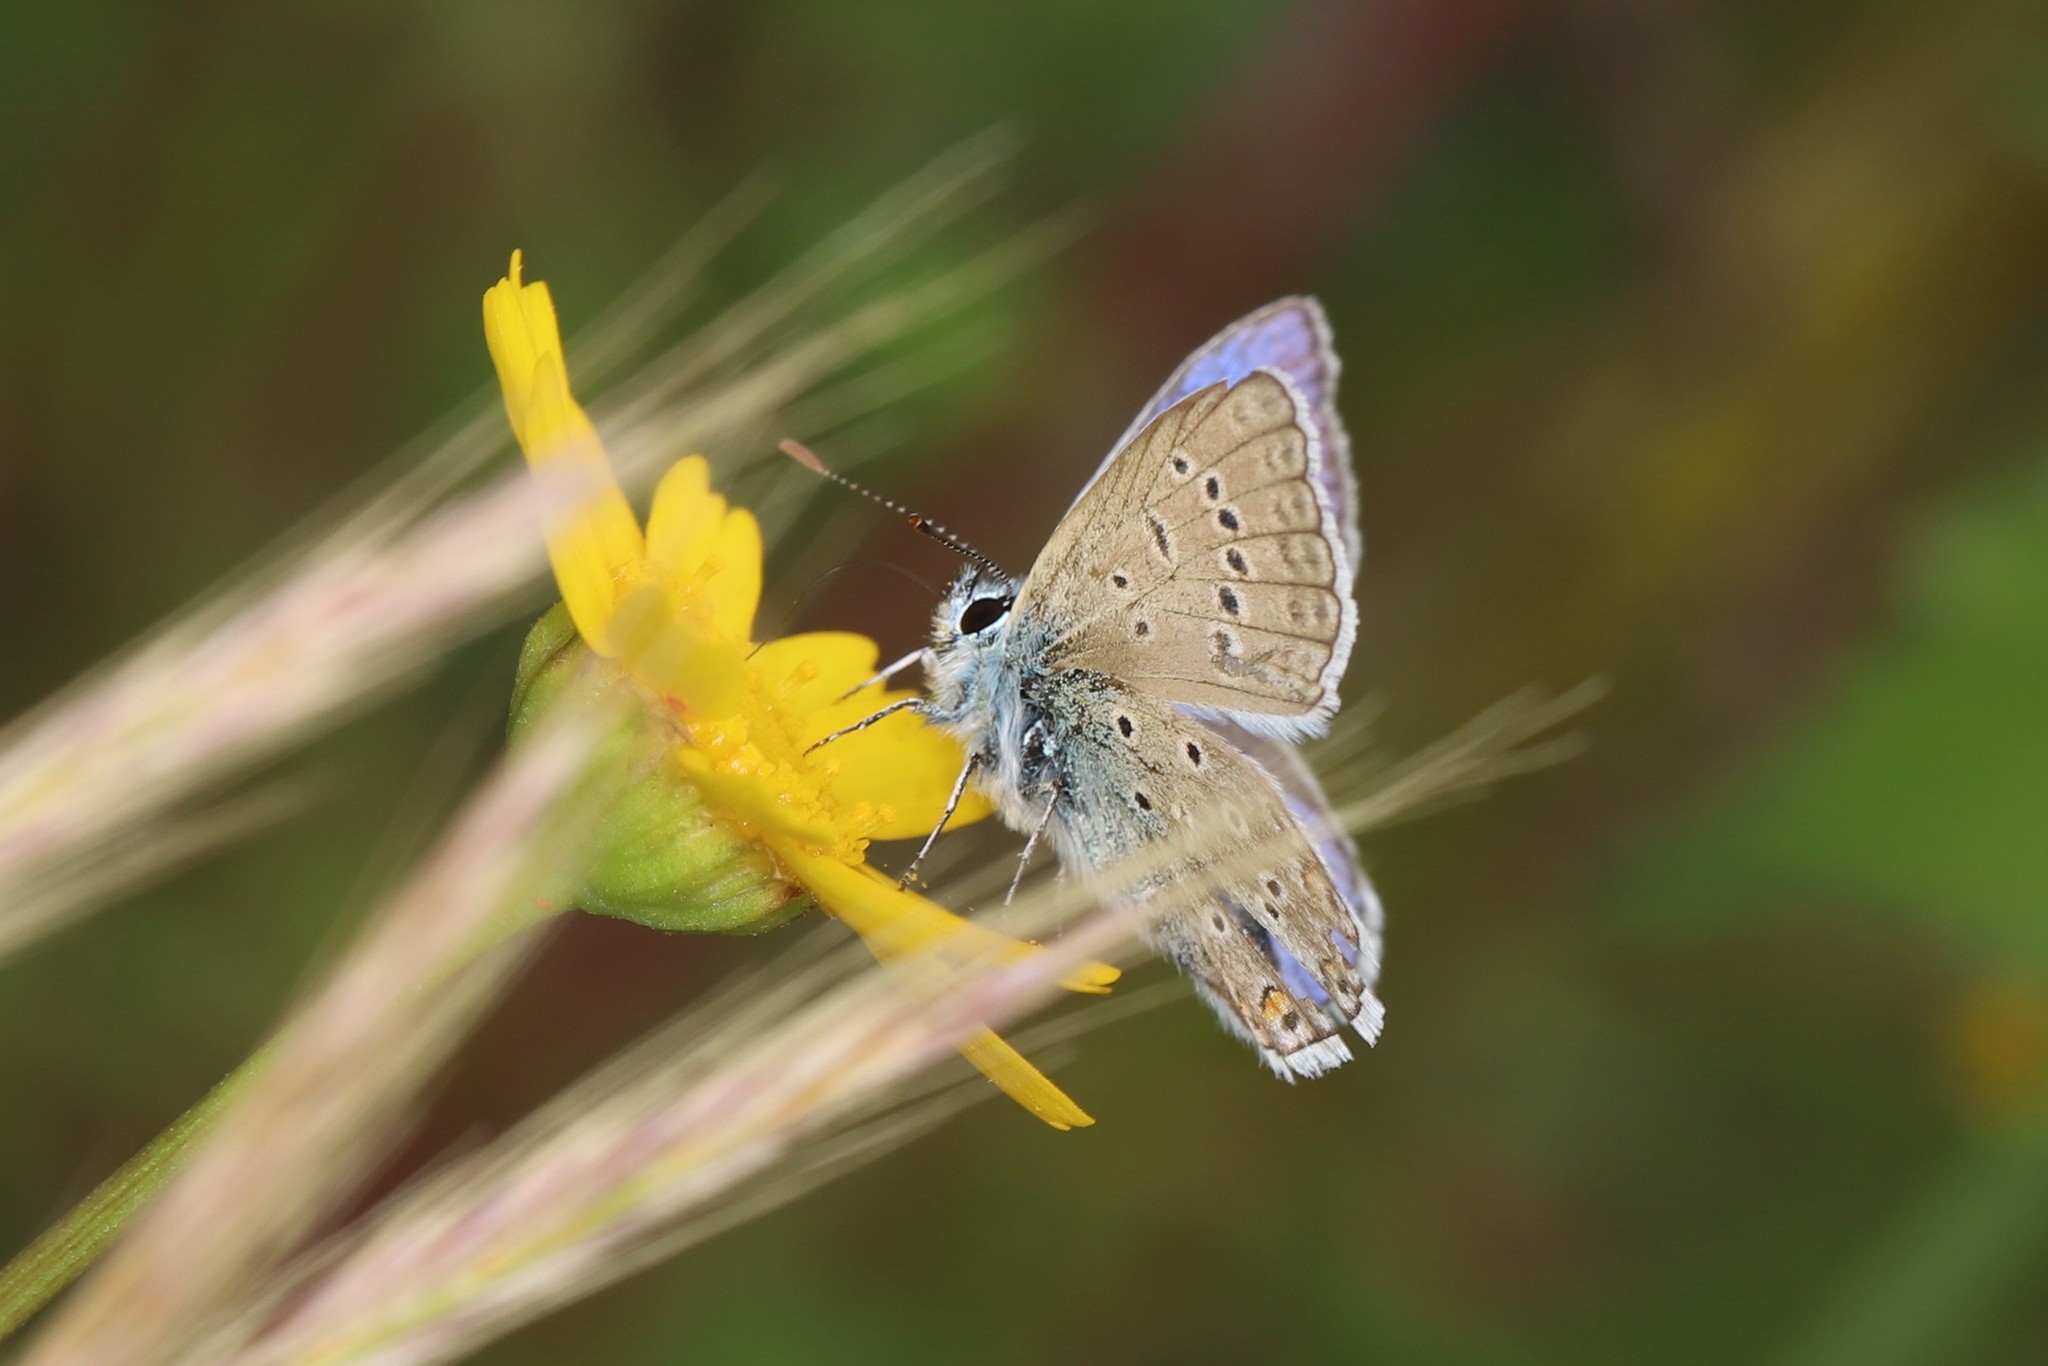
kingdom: Animalia
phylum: Arthropoda
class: Insecta
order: Lepidoptera
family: Lycaenidae
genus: Polyommatus
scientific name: Polyommatus icarus
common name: Common blue
